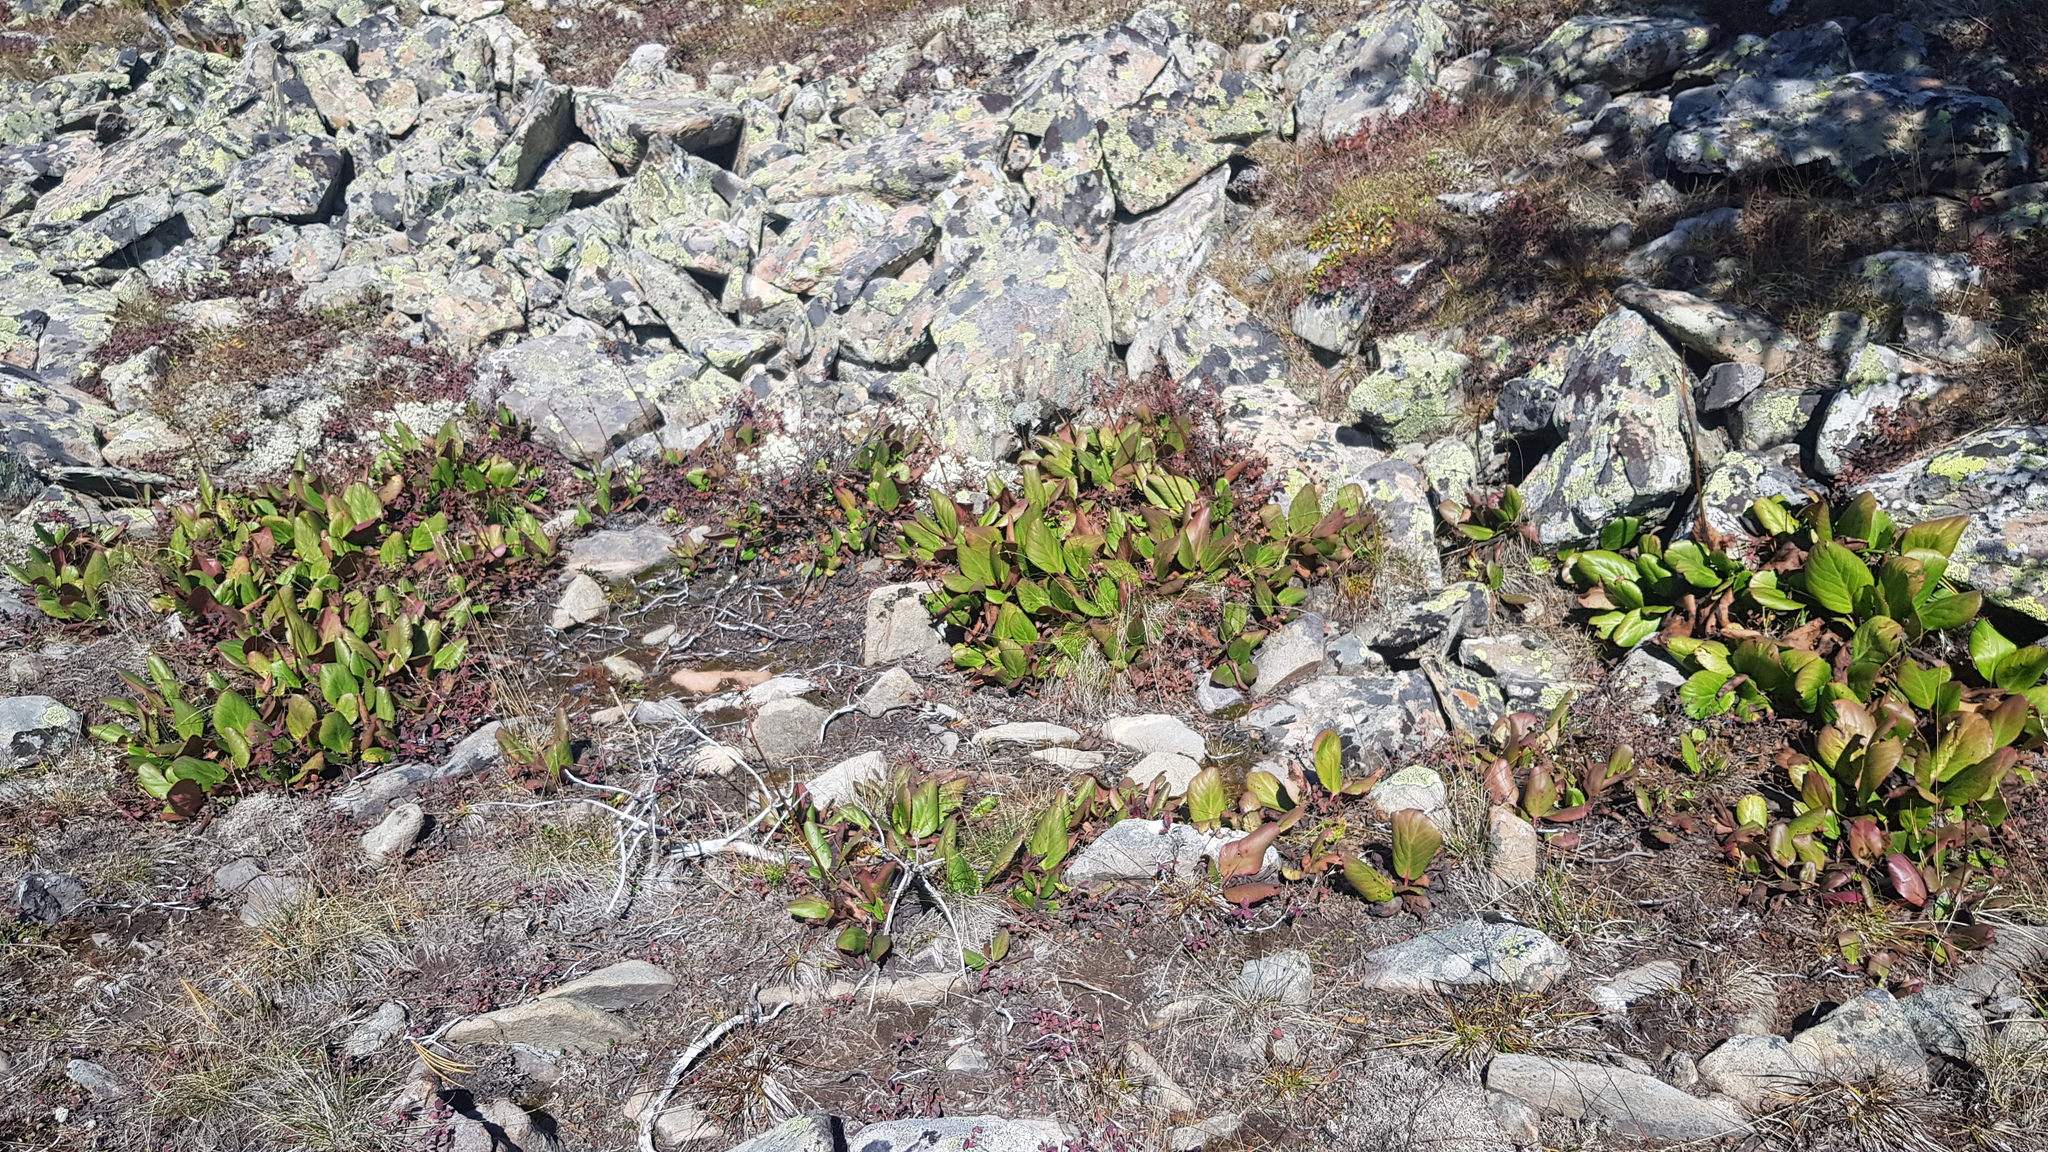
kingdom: Plantae
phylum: Tracheophyta
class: Magnoliopsida
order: Saxifragales
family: Saxifragaceae
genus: Bergenia
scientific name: Bergenia crassifolia
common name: Elephant-ears
